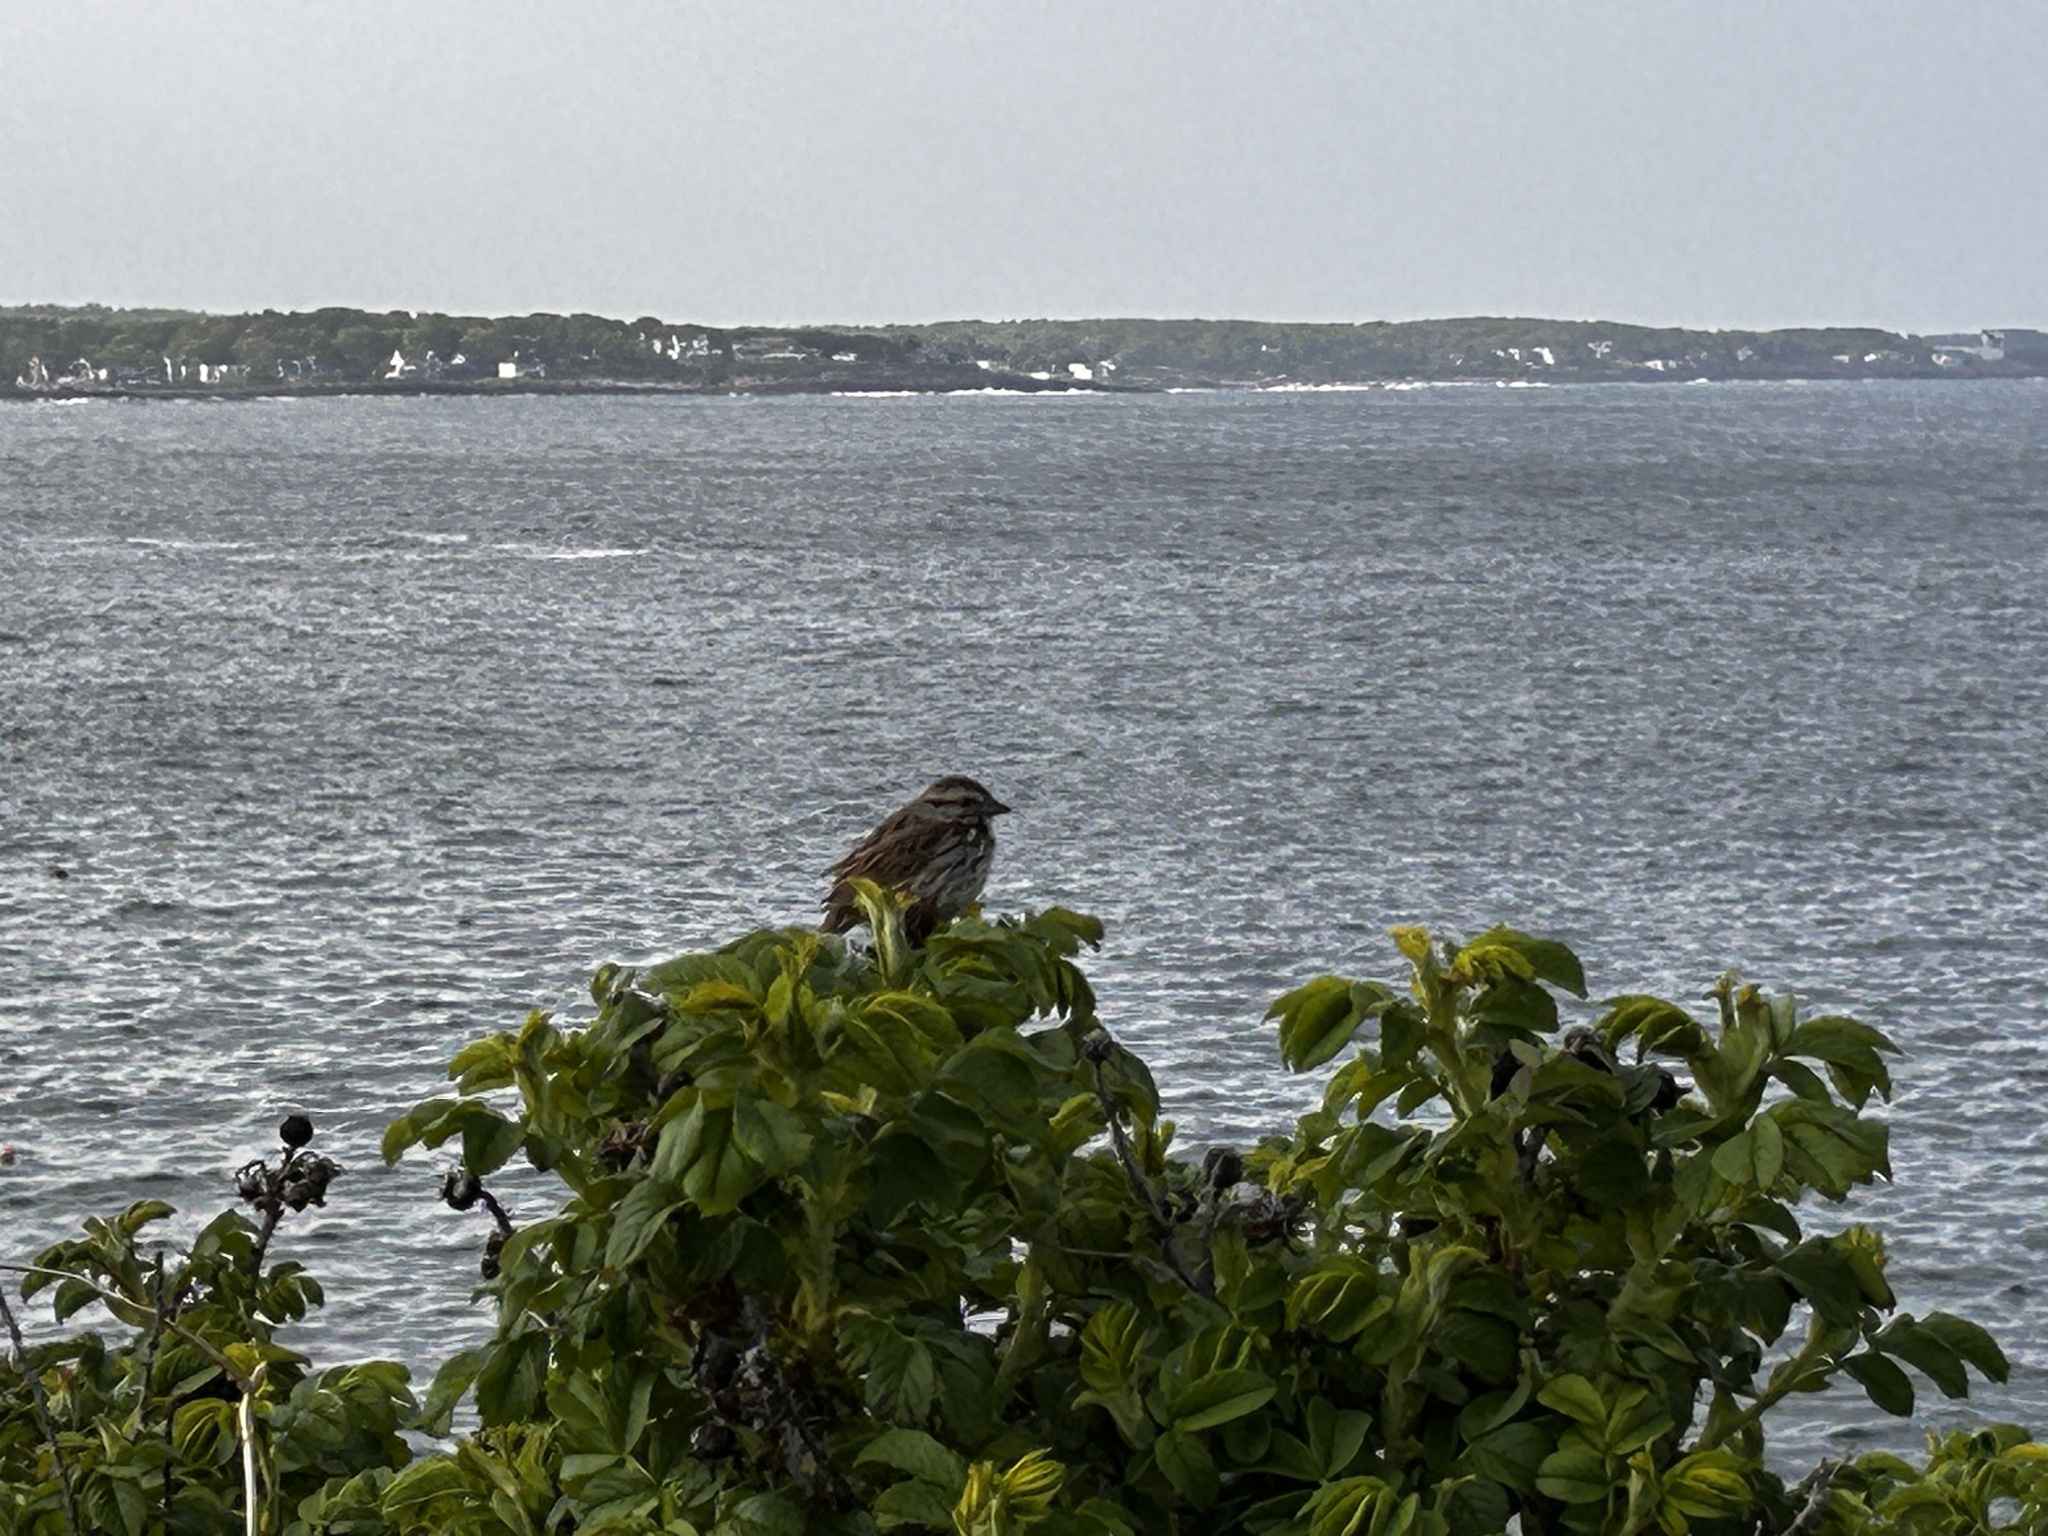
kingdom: Animalia
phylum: Chordata
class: Aves
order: Passeriformes
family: Passerellidae
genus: Melospiza
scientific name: Melospiza melodia
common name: Song sparrow
